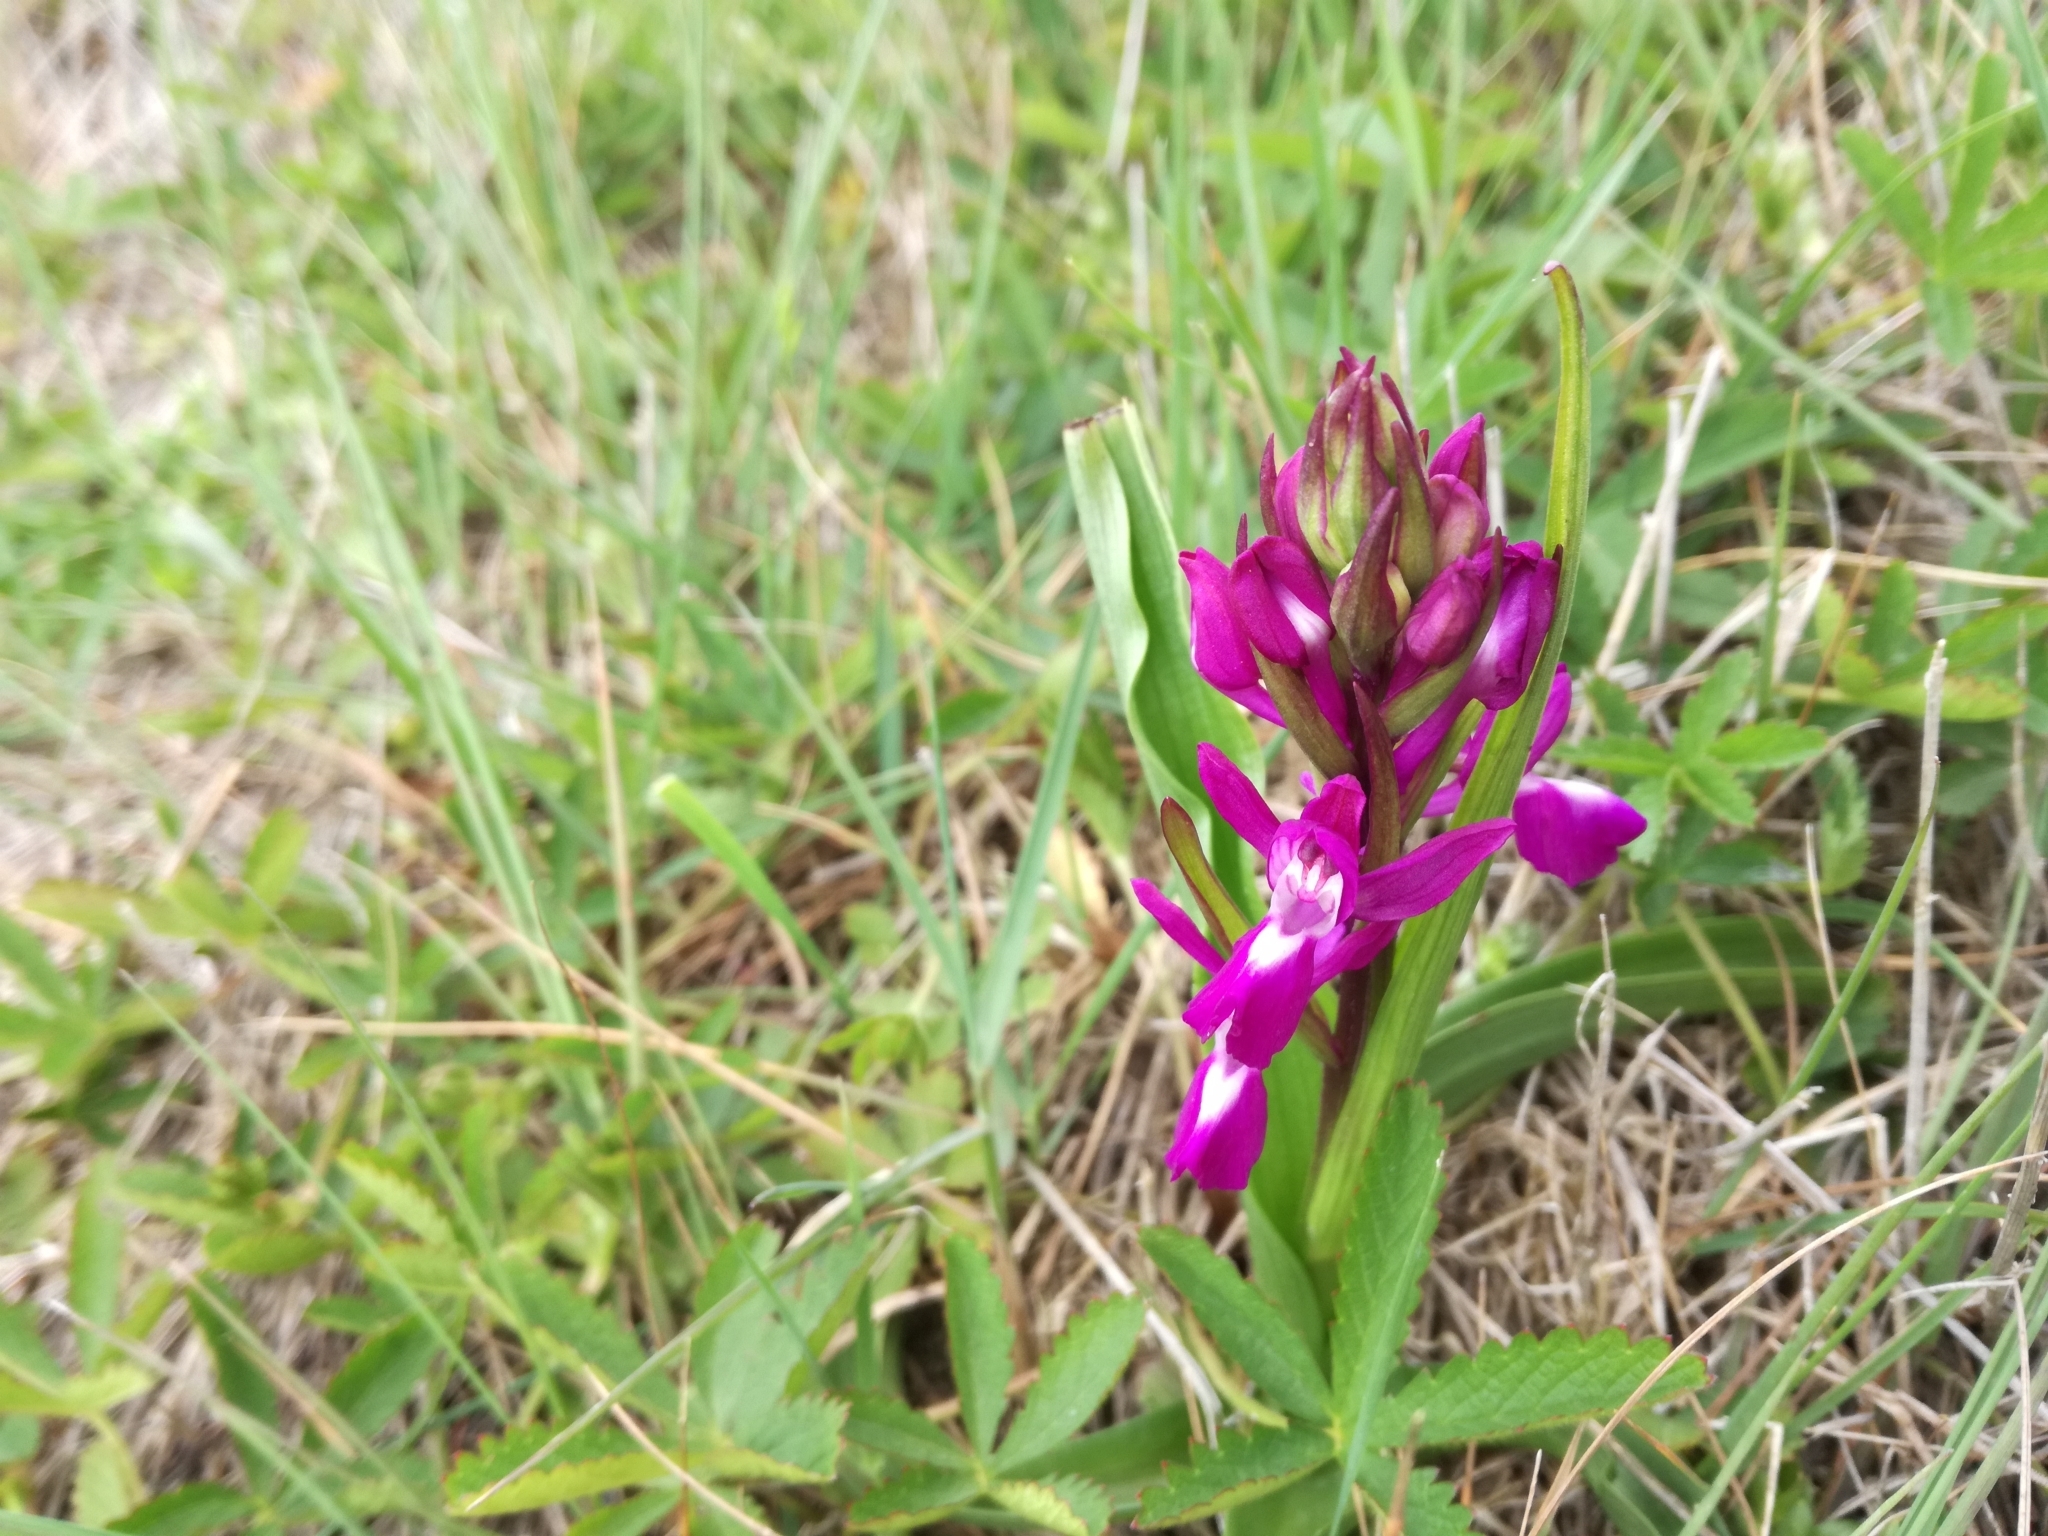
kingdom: Plantae
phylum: Tracheophyta
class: Liliopsida
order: Asparagales
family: Orchidaceae
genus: Anacamptis
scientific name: Anacamptis laxiflora
